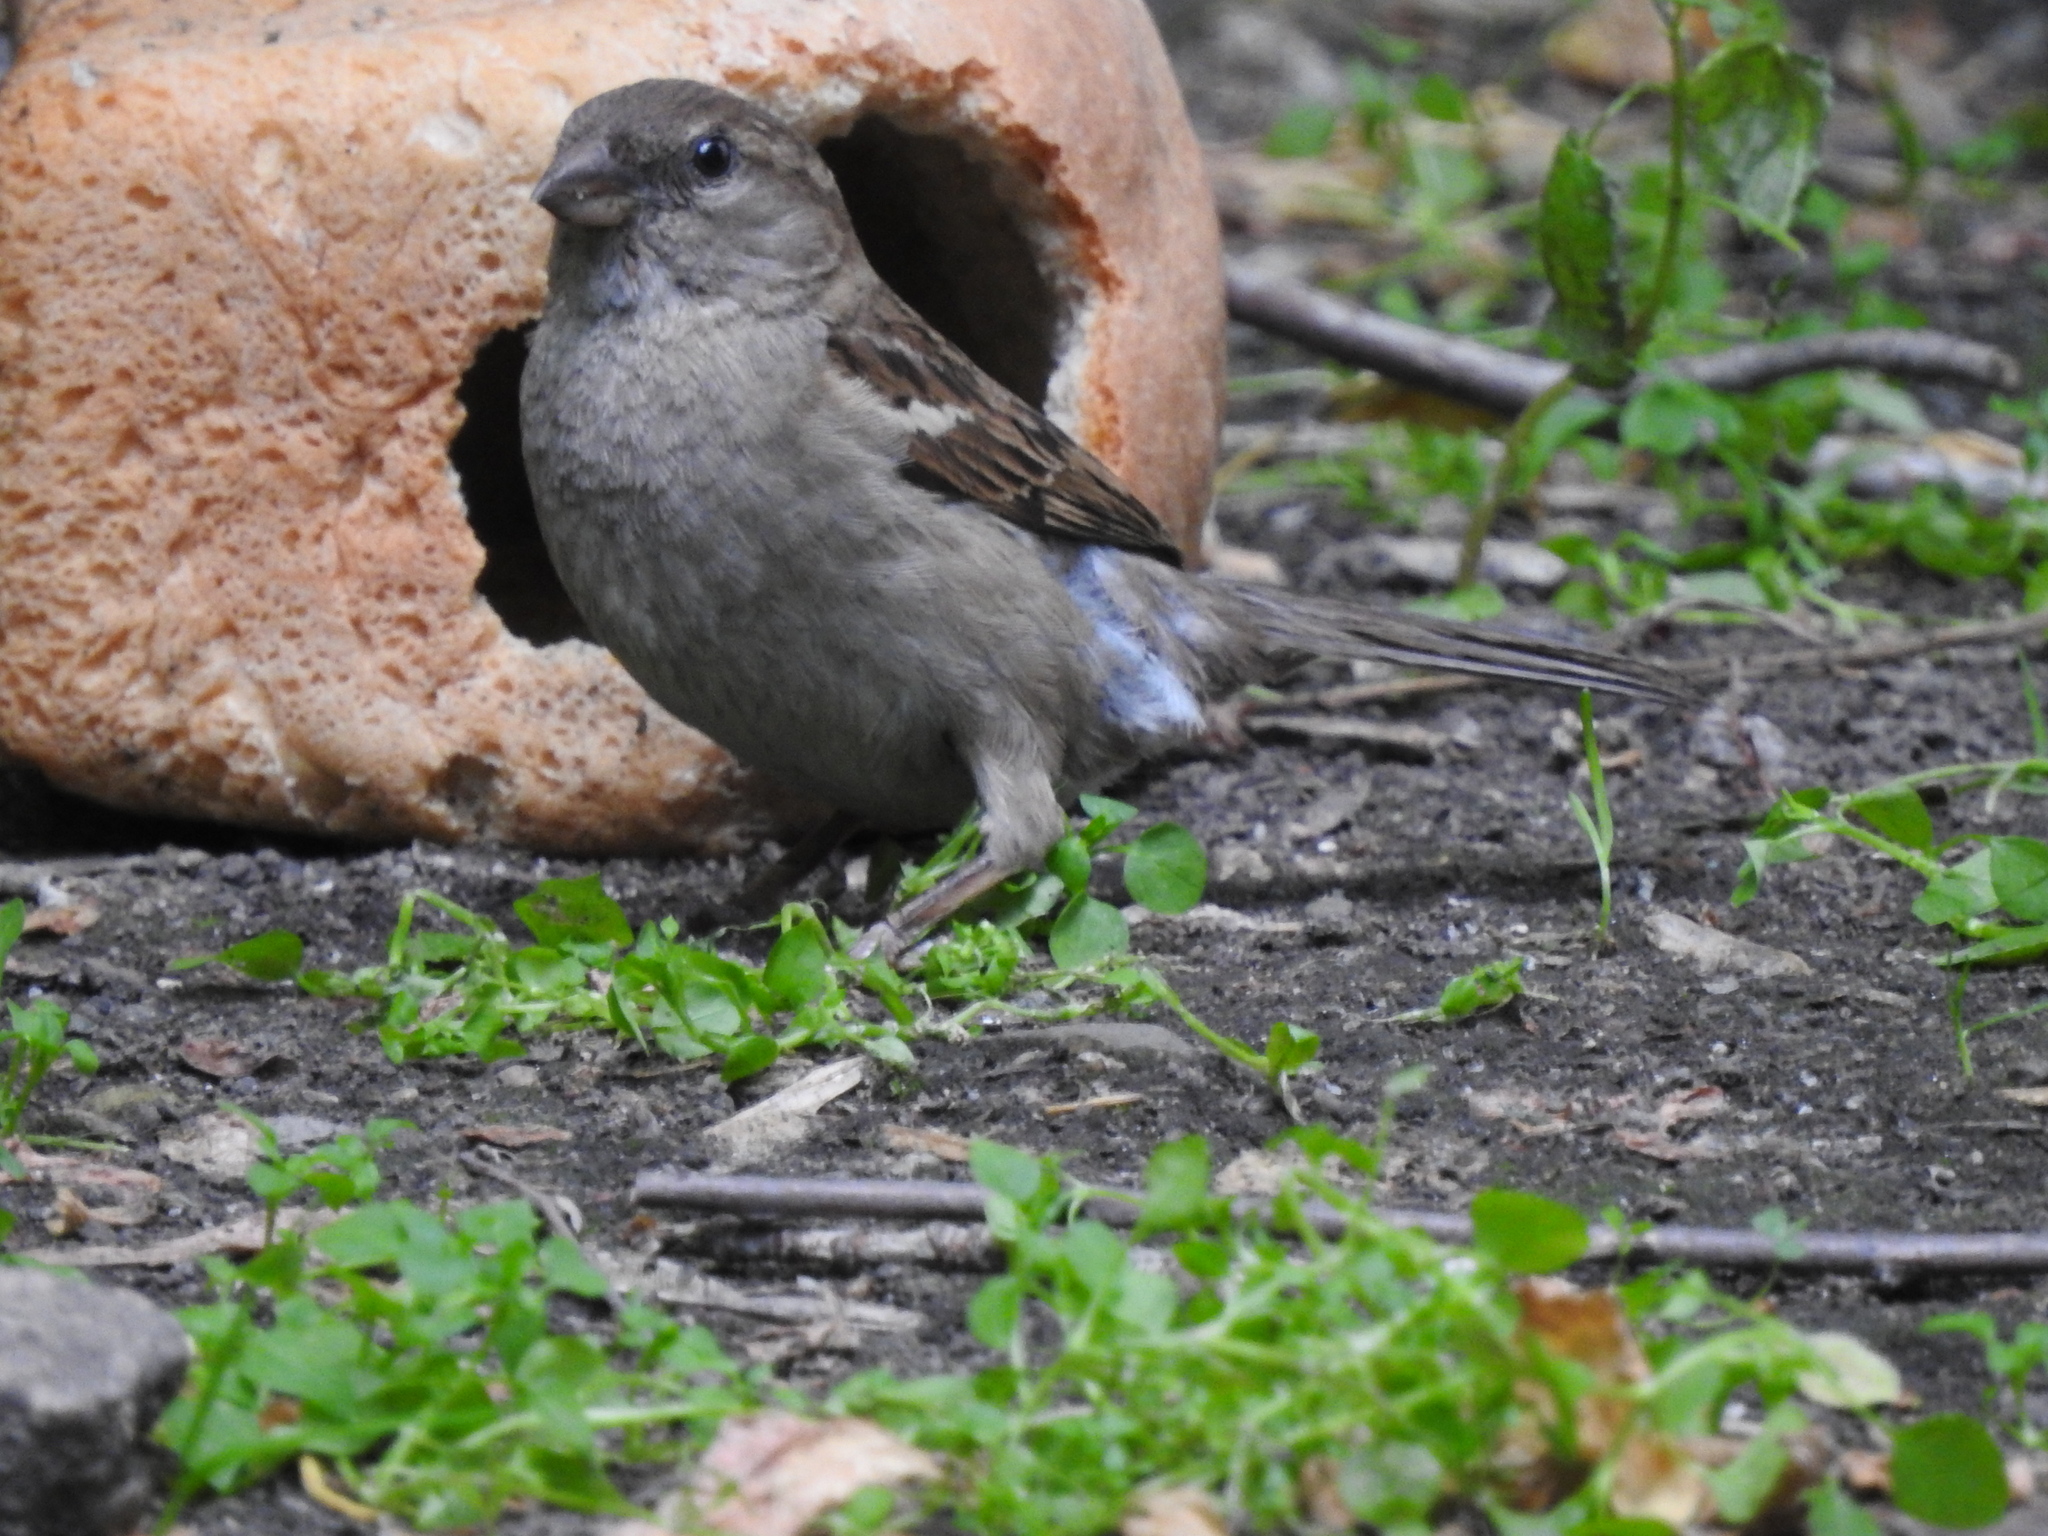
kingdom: Animalia
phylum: Chordata
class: Aves
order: Passeriformes
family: Passeridae
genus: Passer
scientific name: Passer domesticus
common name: House sparrow
